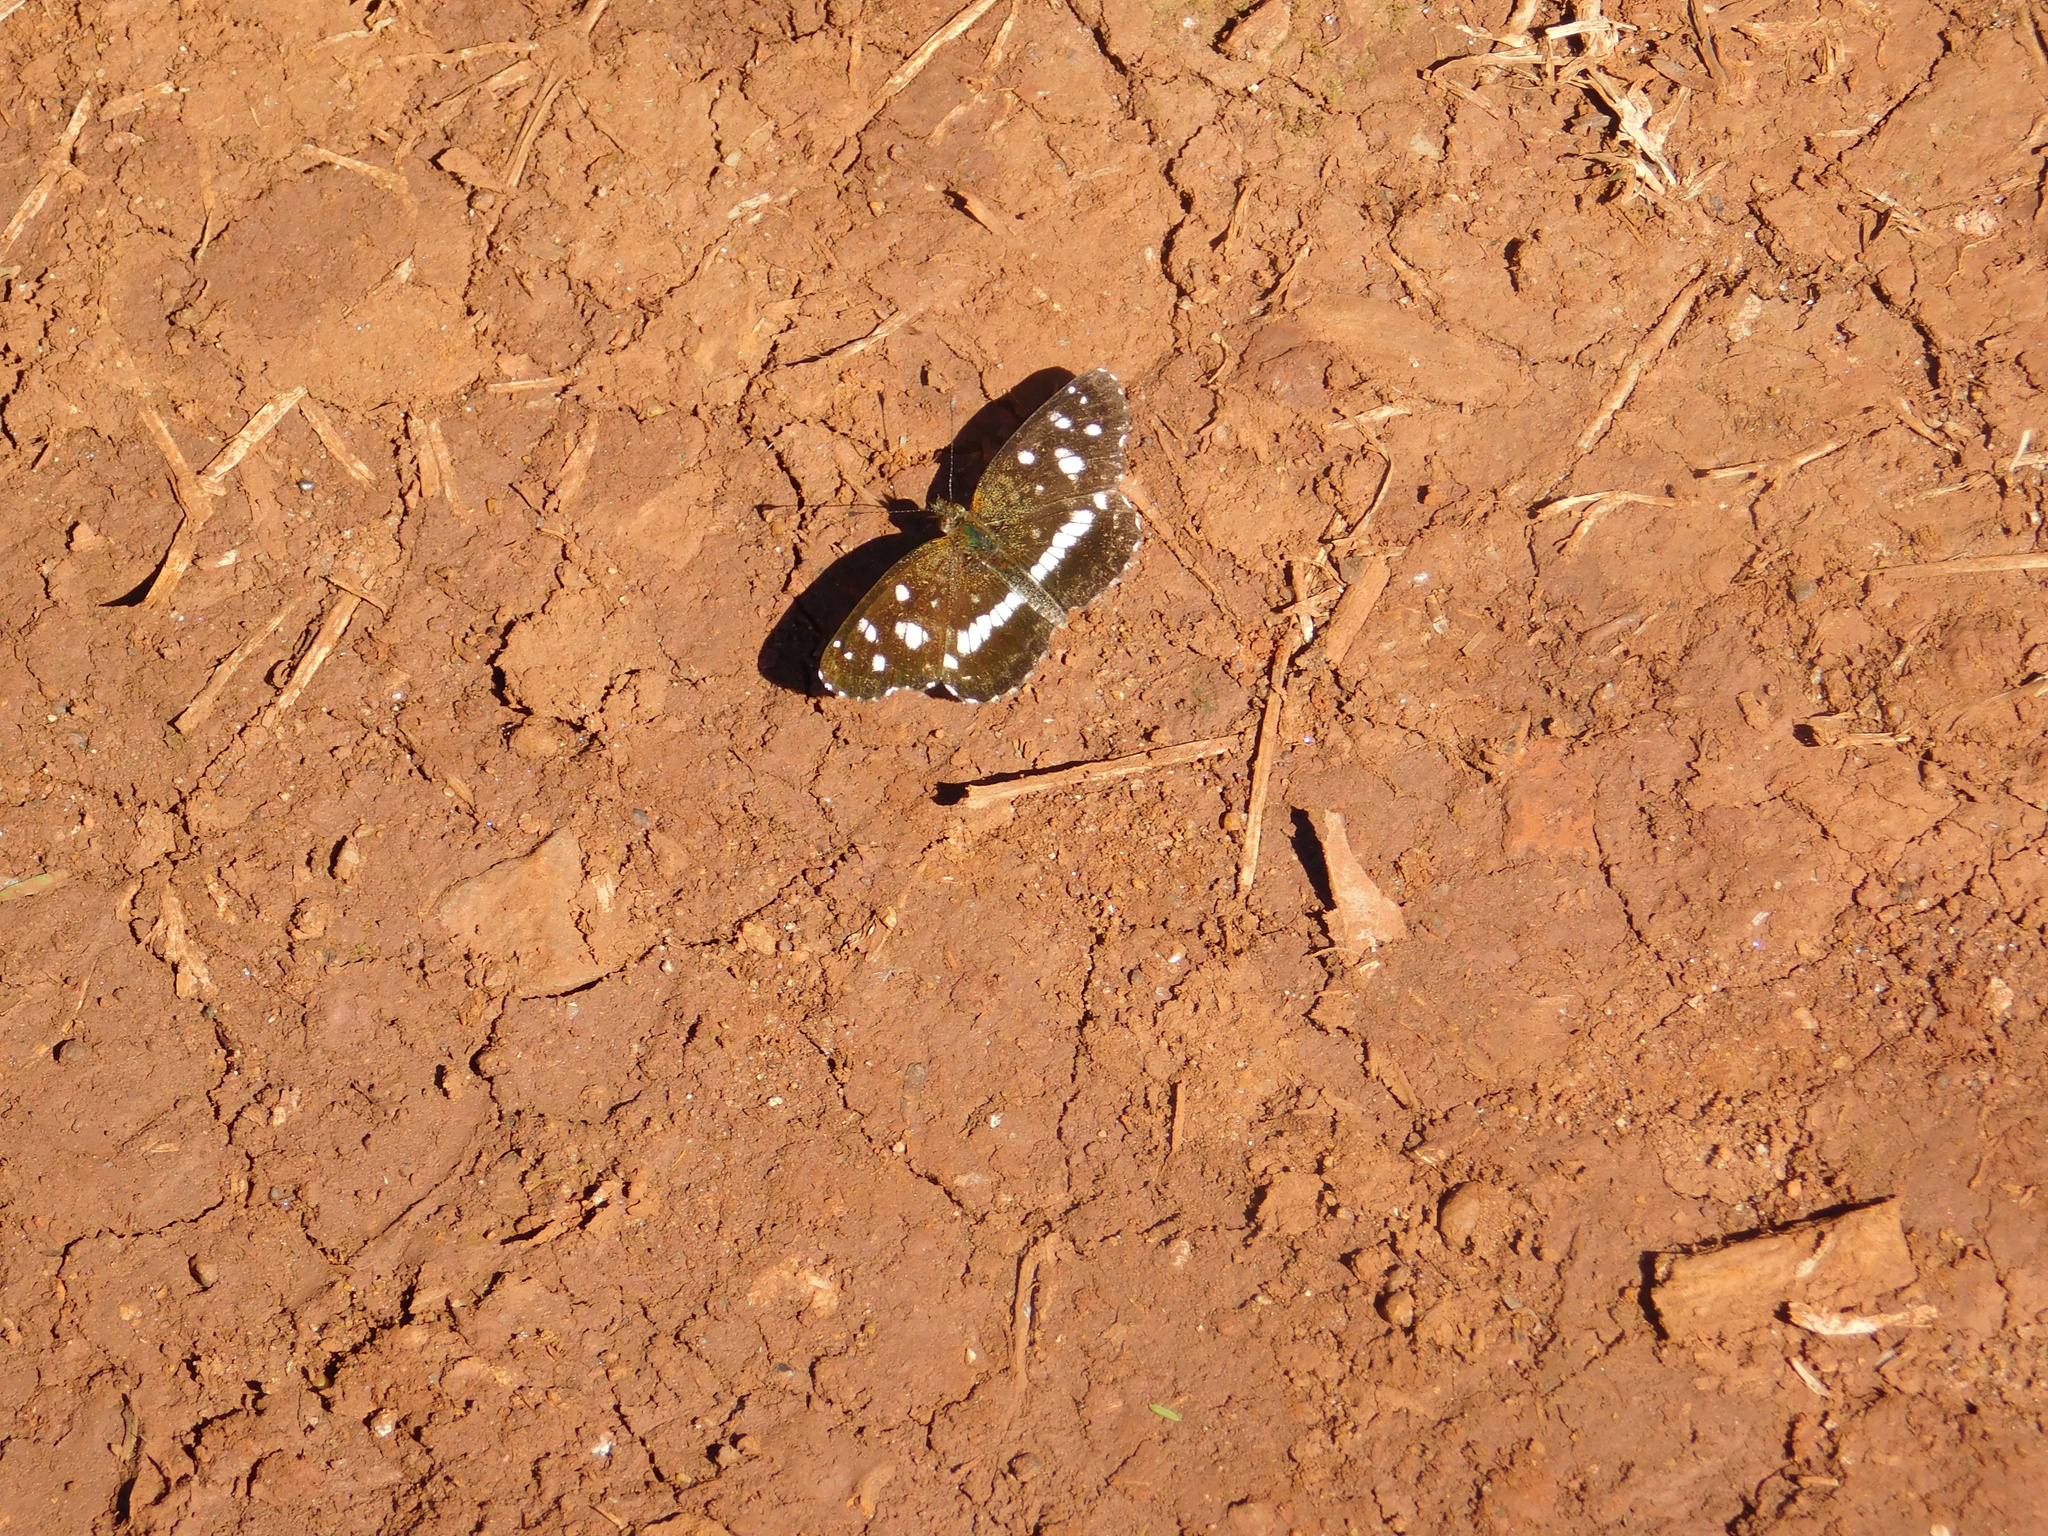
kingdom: Animalia
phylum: Arthropoda
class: Insecta
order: Lepidoptera
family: Nymphalidae
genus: Ortilia
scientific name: Ortilia ithra
